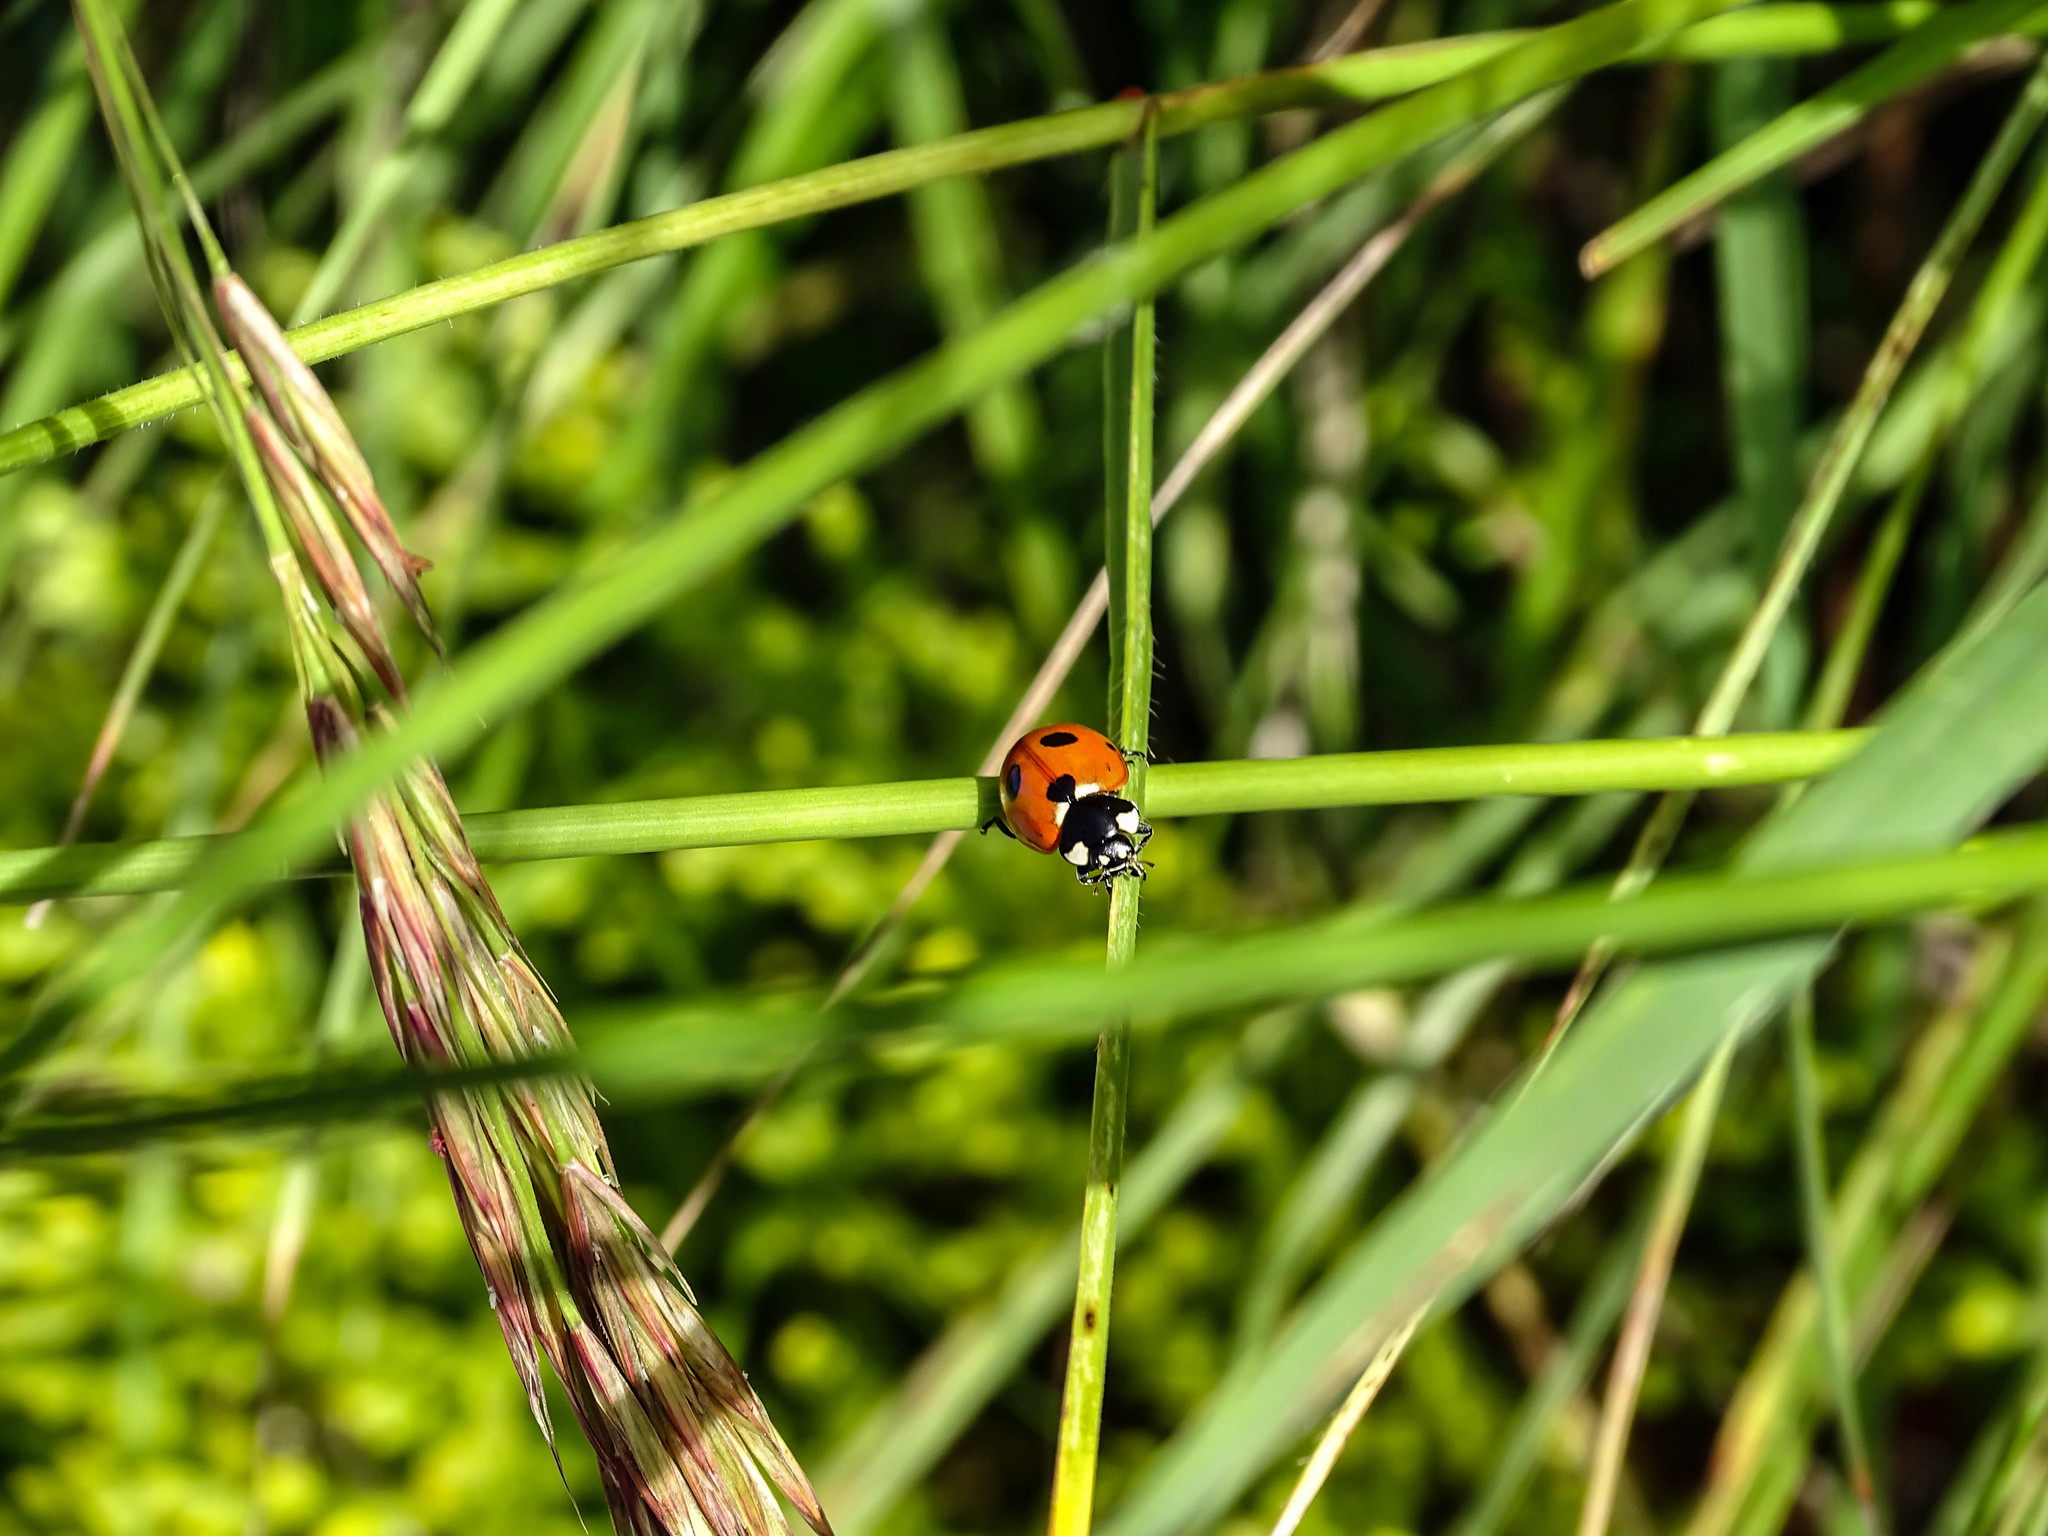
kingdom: Animalia
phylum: Arthropoda
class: Insecta
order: Coleoptera
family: Coccinellidae
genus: Coccinella
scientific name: Coccinella septempunctata
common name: Sevenspotted lady beetle
